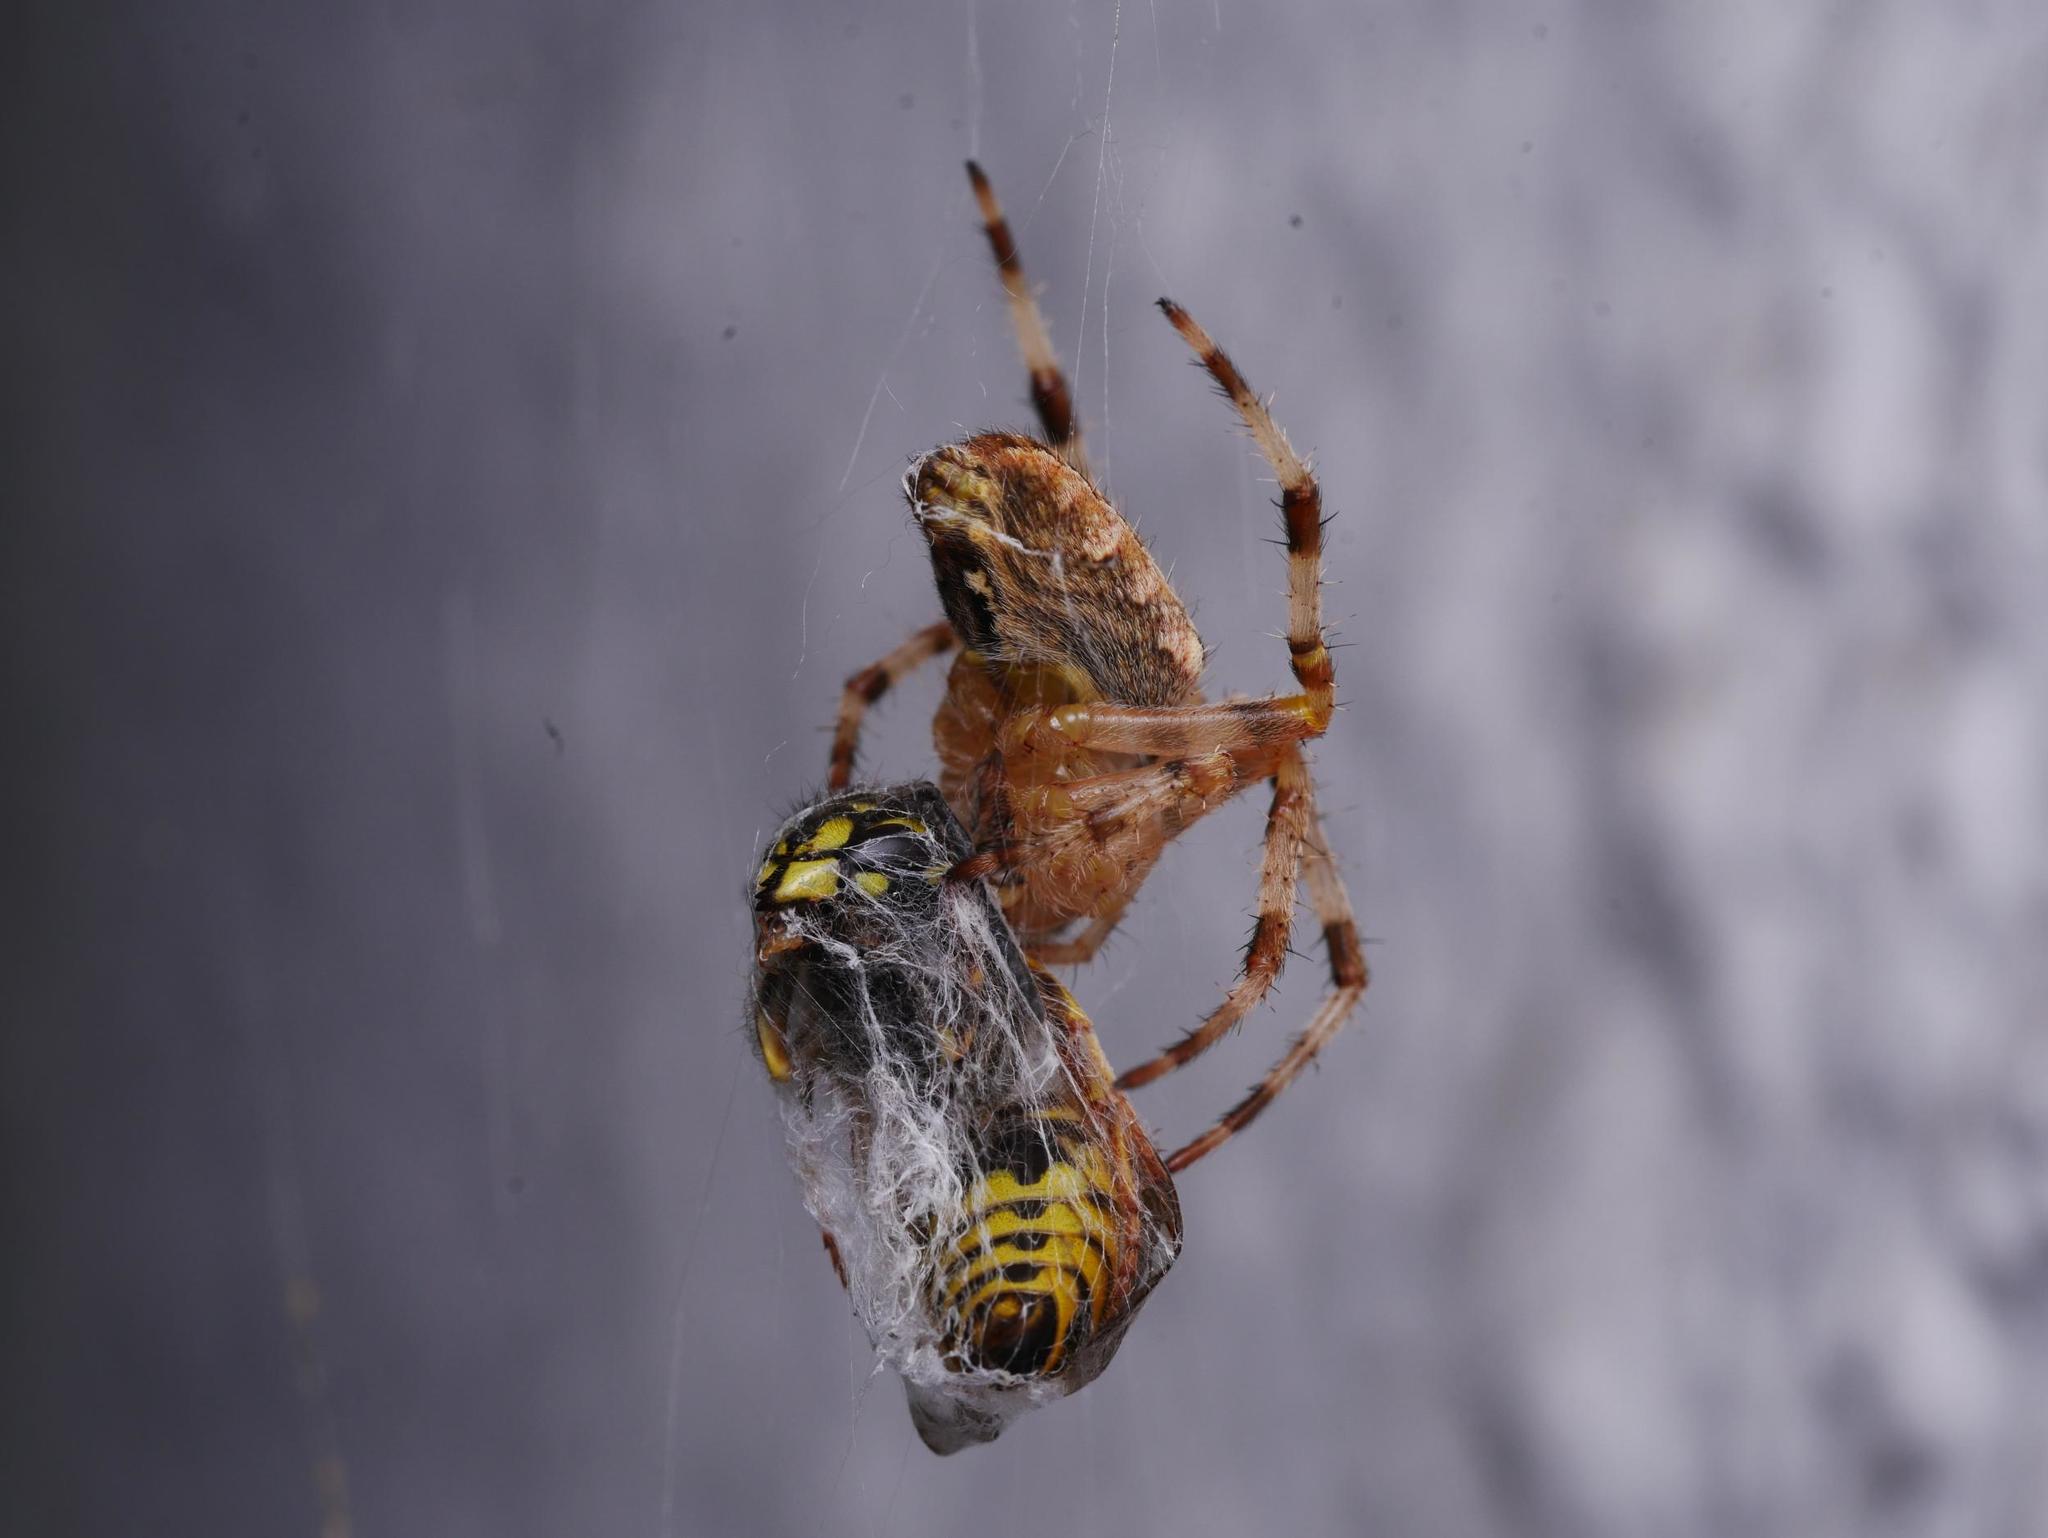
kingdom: Animalia
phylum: Arthropoda
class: Arachnida
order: Araneae
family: Araneidae
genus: Araneus
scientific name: Araneus diadematus
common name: Cross orbweaver
